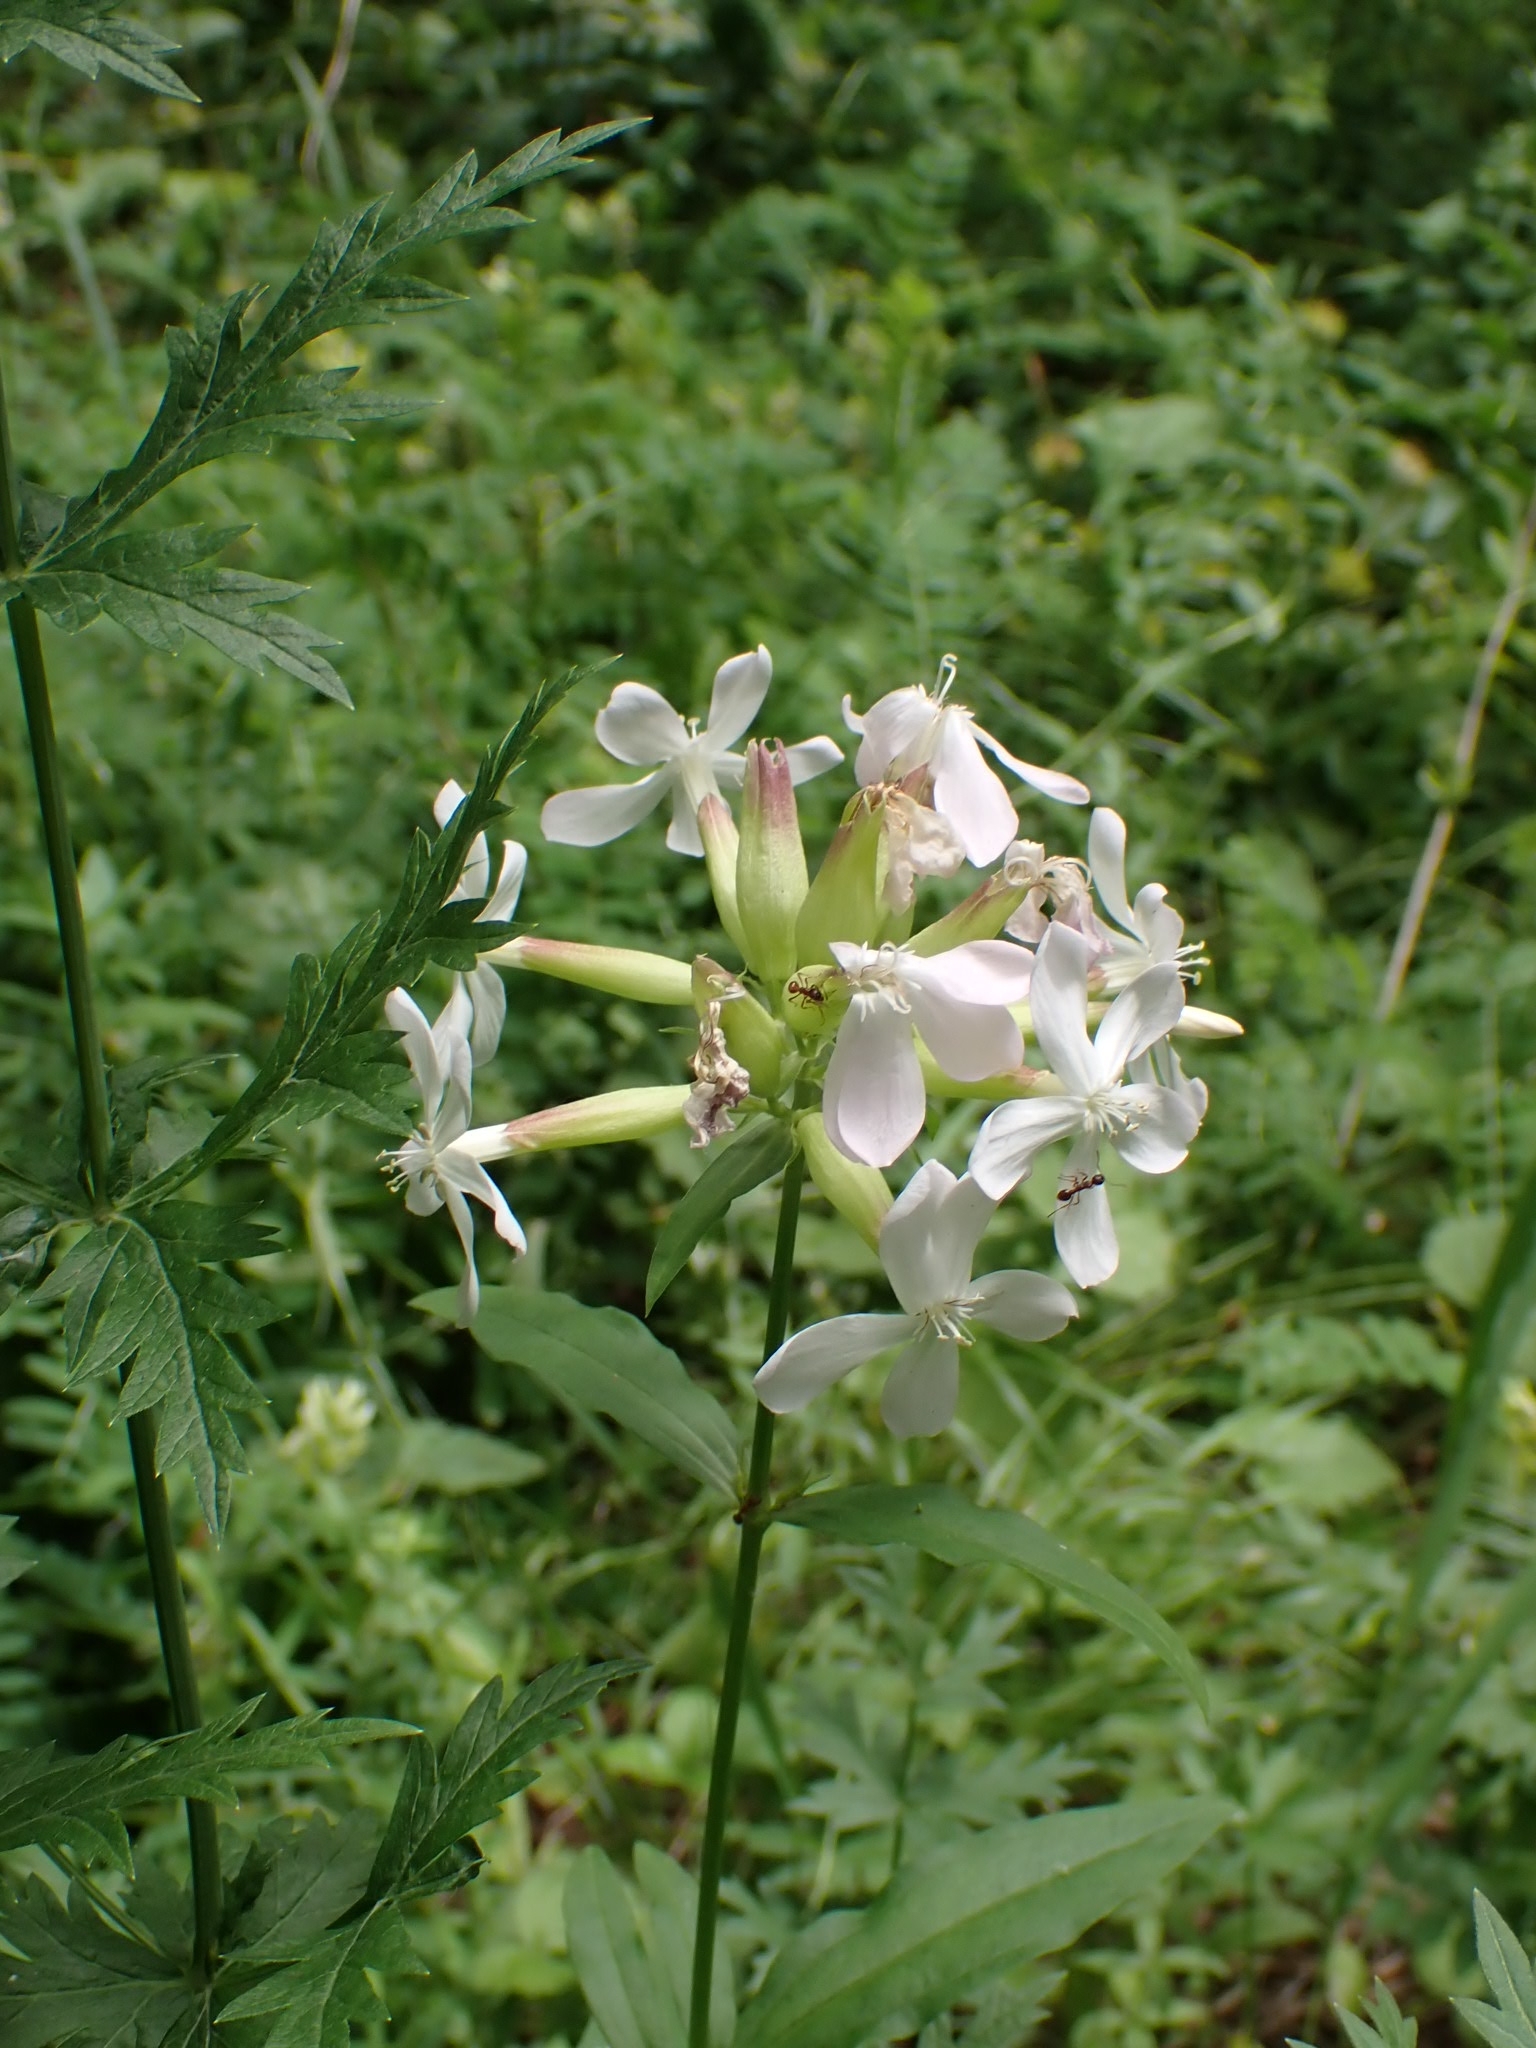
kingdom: Plantae
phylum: Tracheophyta
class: Magnoliopsida
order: Caryophyllales
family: Caryophyllaceae
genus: Saponaria
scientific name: Saponaria officinalis
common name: Soapwort
